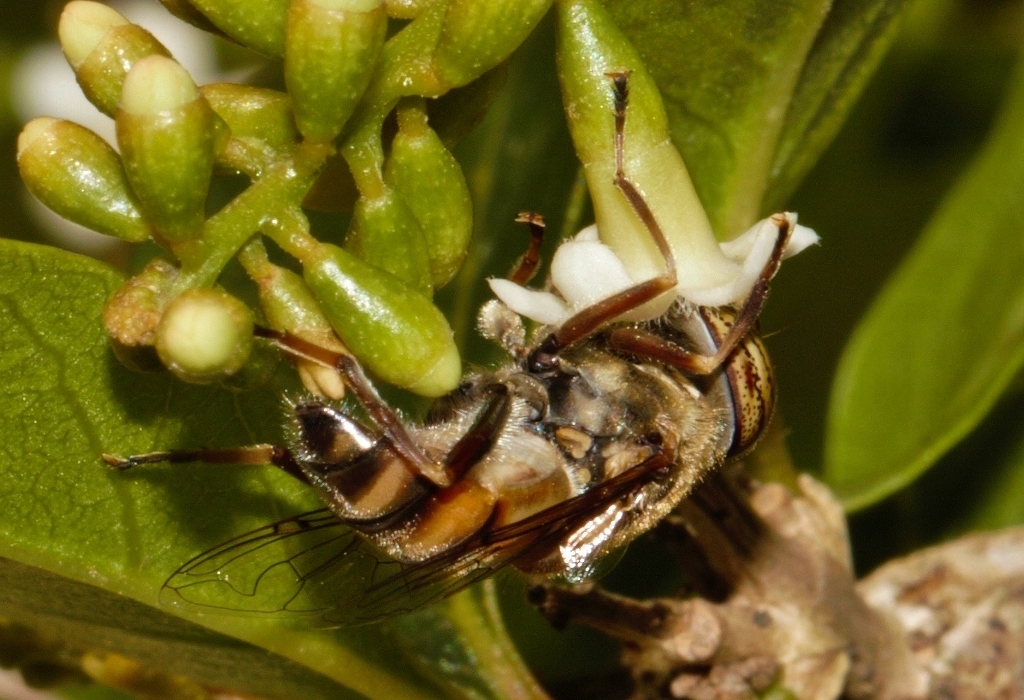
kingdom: Animalia
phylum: Arthropoda
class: Insecta
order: Diptera
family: Syrphidae
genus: Eristalinus
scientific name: Eristalinus barclayi
